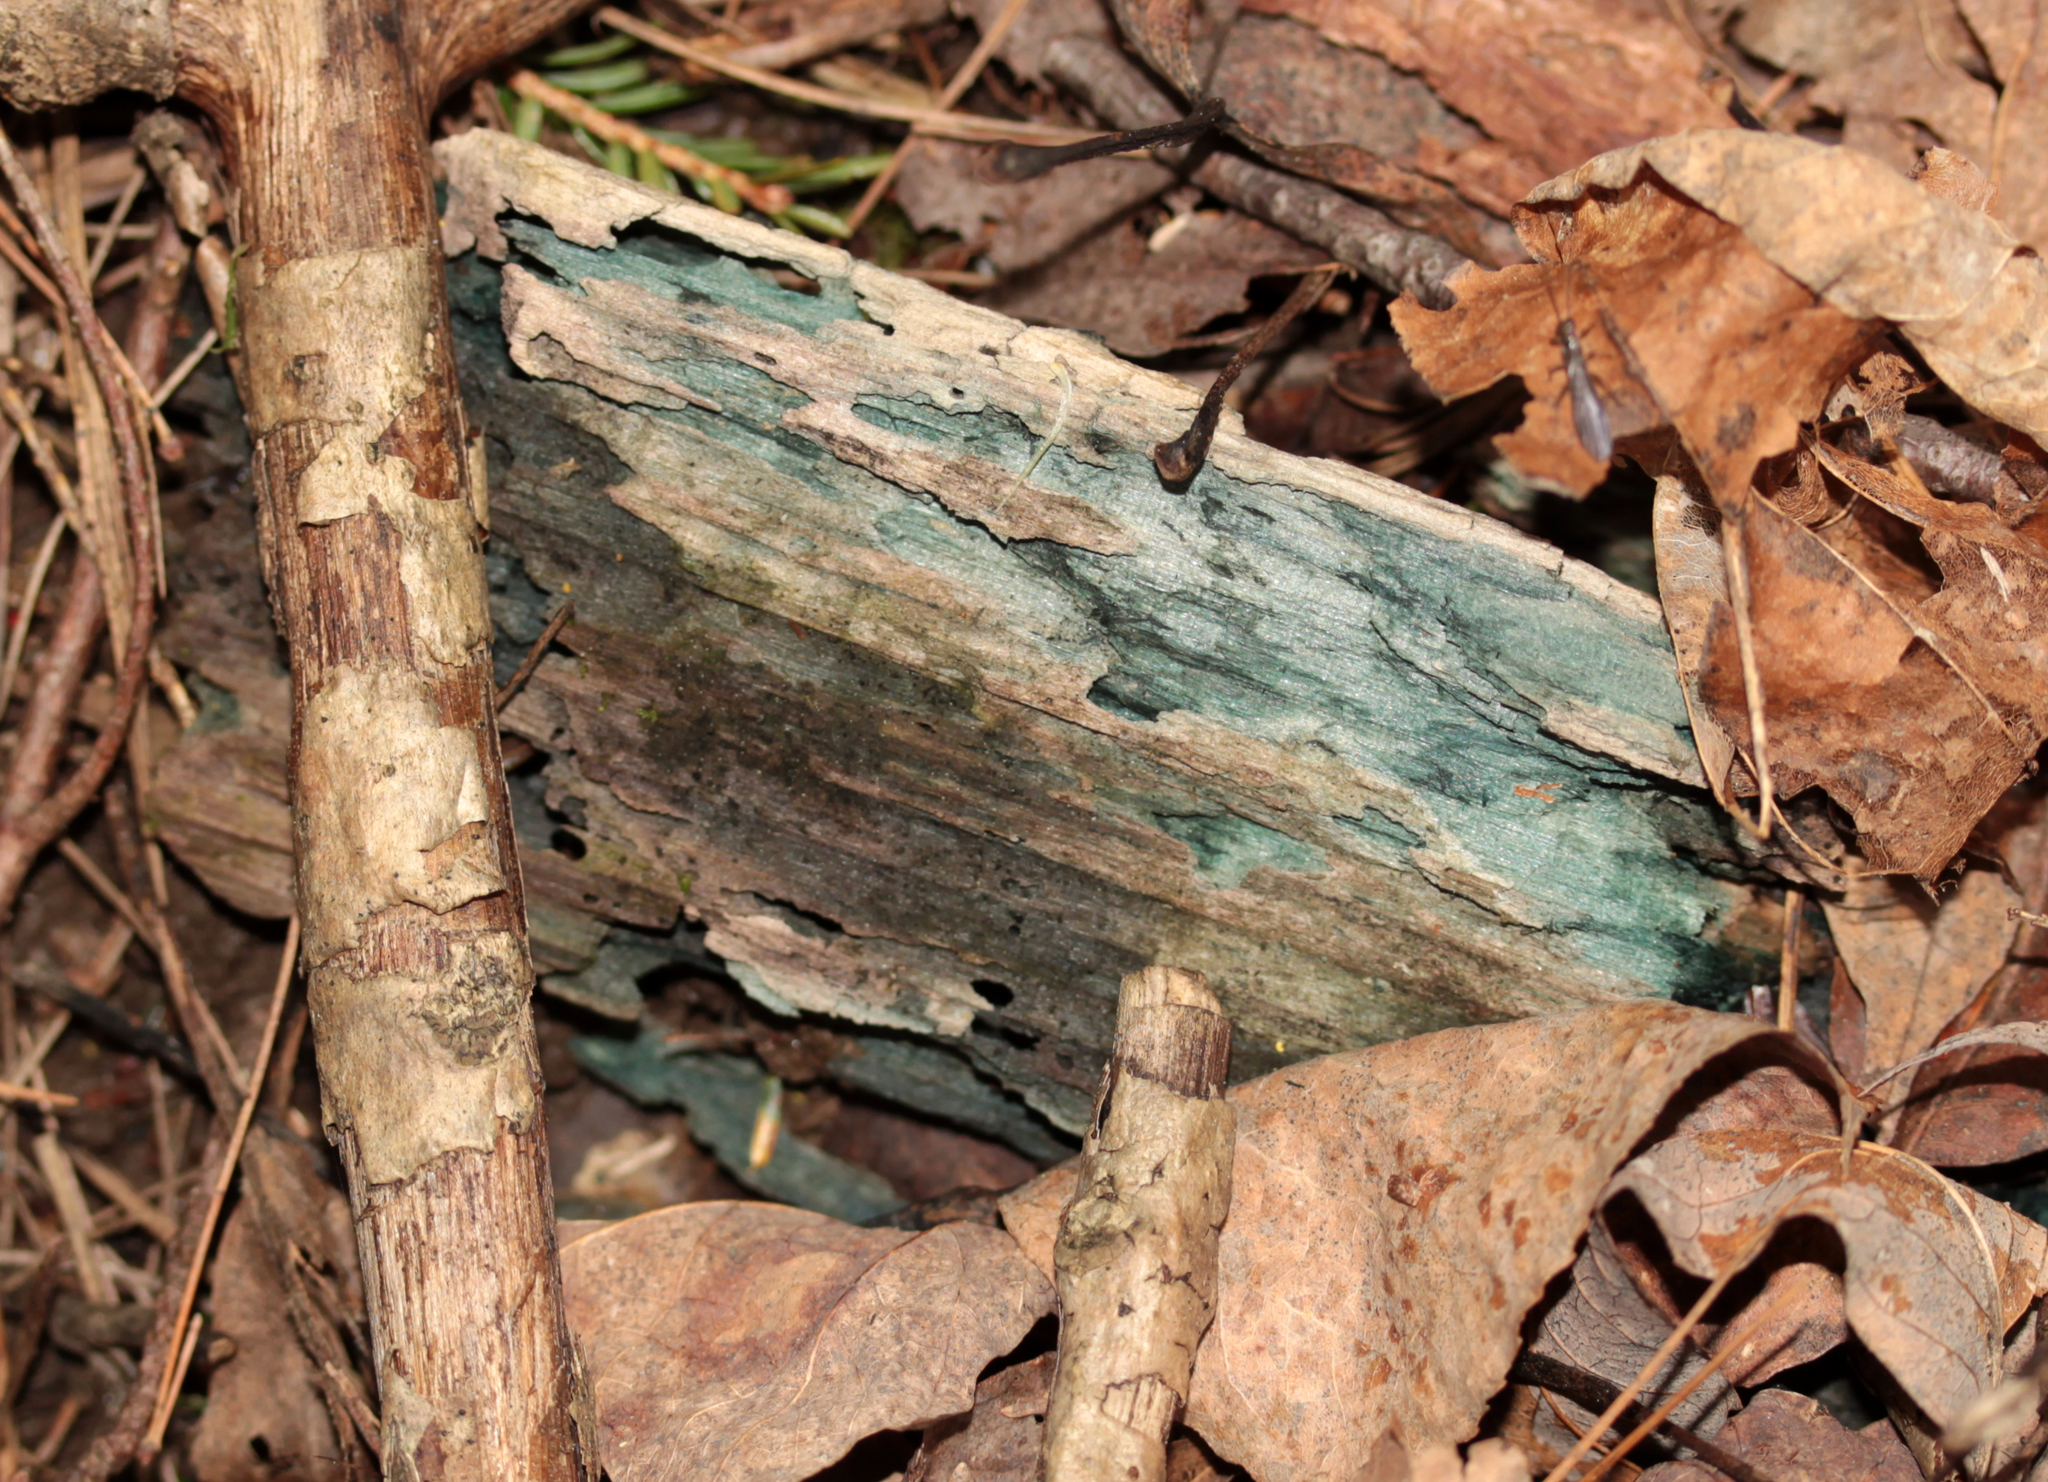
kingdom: Fungi
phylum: Ascomycota
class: Leotiomycetes
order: Helotiales
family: Chlorociboriaceae
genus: Chlorociboria
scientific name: Chlorociboria
